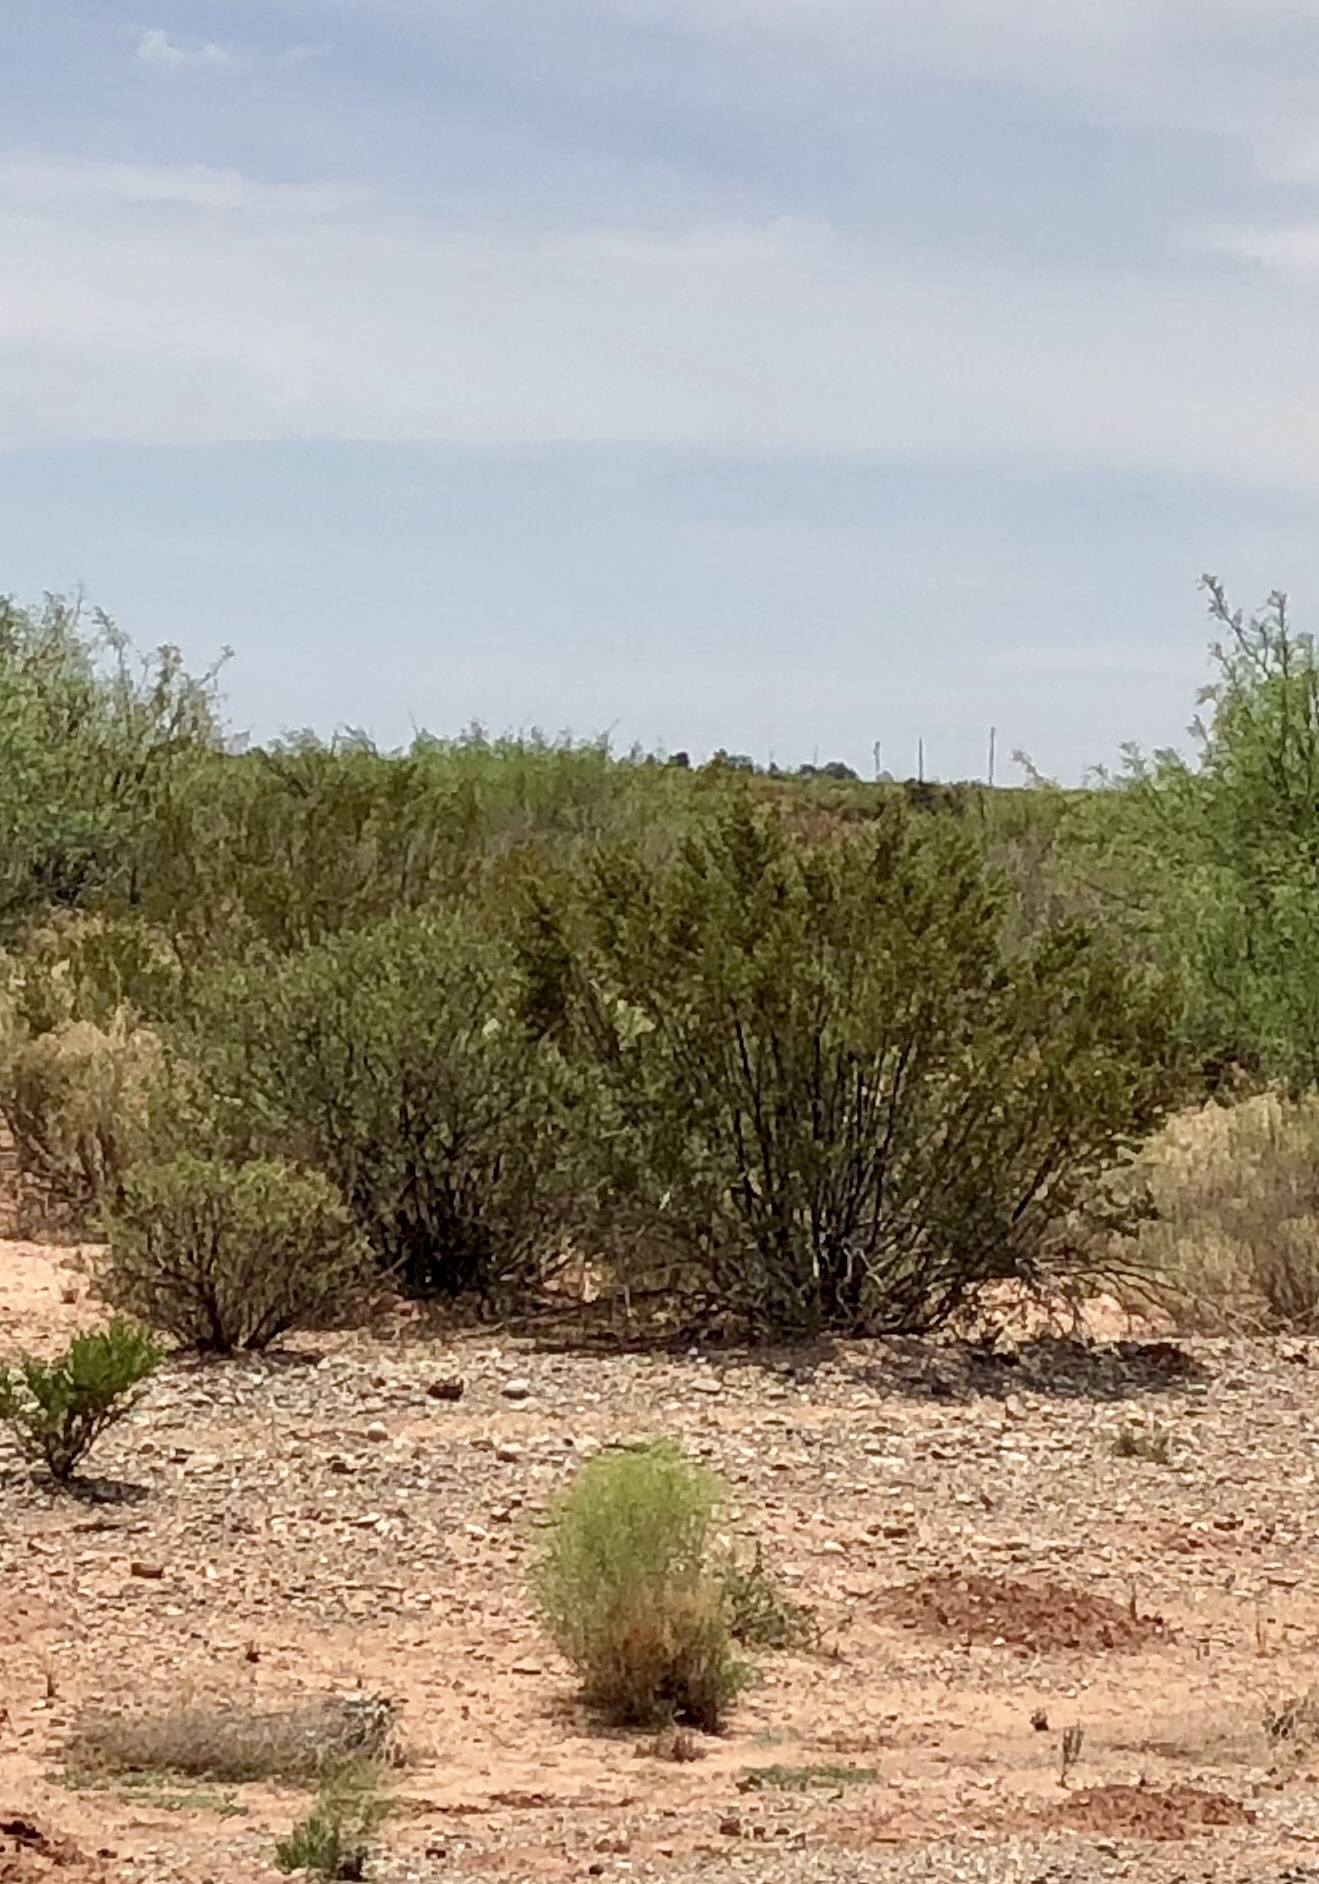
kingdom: Plantae
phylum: Tracheophyta
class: Magnoliopsida
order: Zygophyllales
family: Zygophyllaceae
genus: Larrea
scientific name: Larrea tridentata
